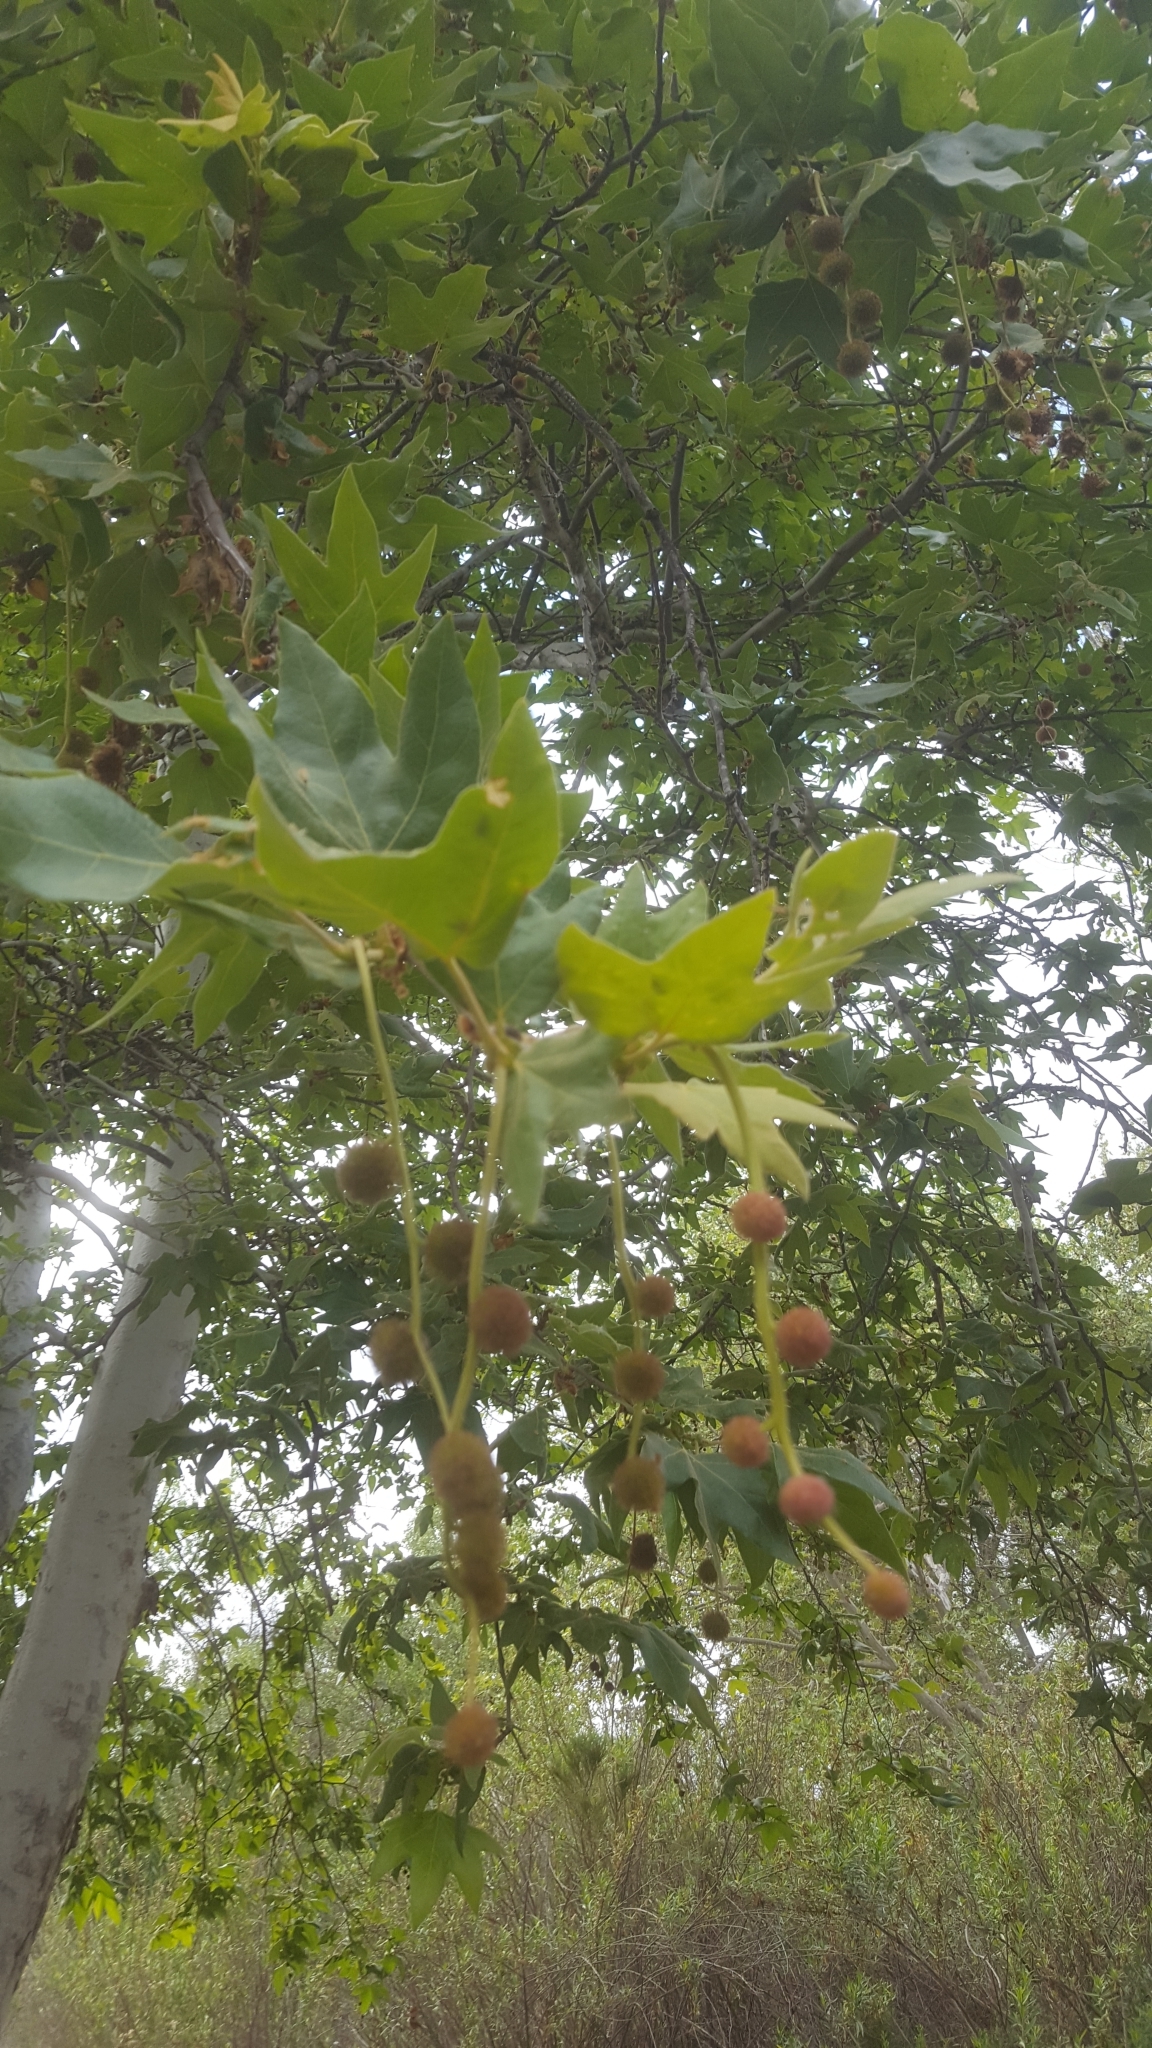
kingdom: Plantae
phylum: Tracheophyta
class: Magnoliopsida
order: Proteales
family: Platanaceae
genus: Platanus
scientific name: Platanus racemosa
